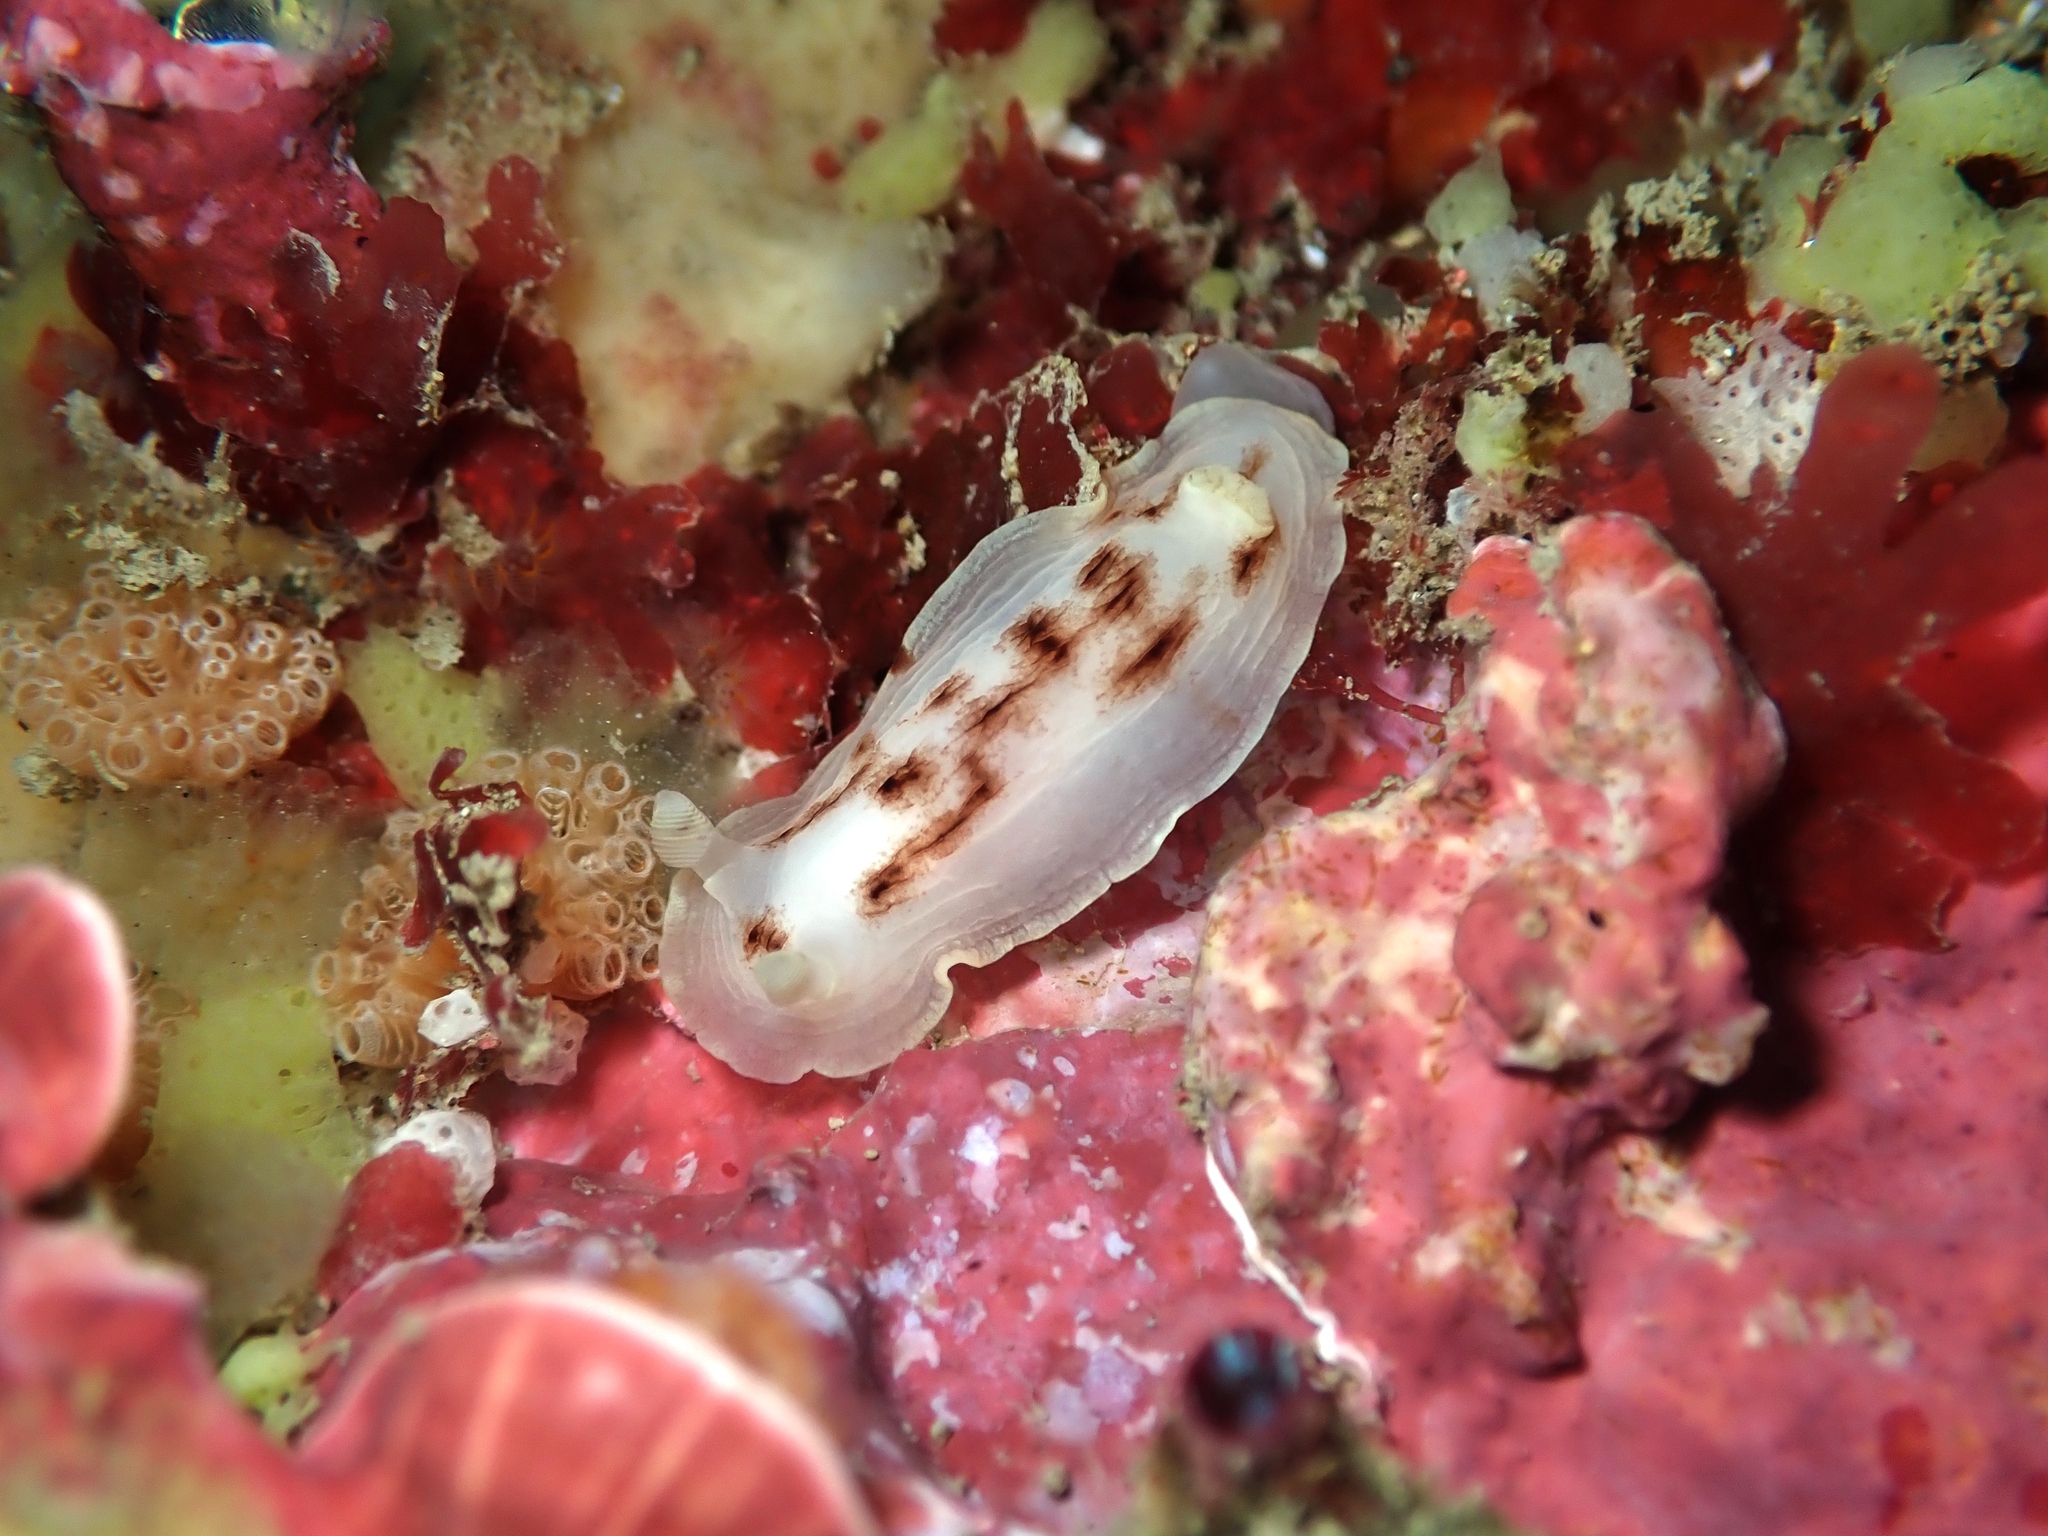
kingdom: Animalia
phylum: Mollusca
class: Gastropoda
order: Nudibranchia
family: Dorididae
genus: Aphelodoris
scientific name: Aphelodoris luctuosa
